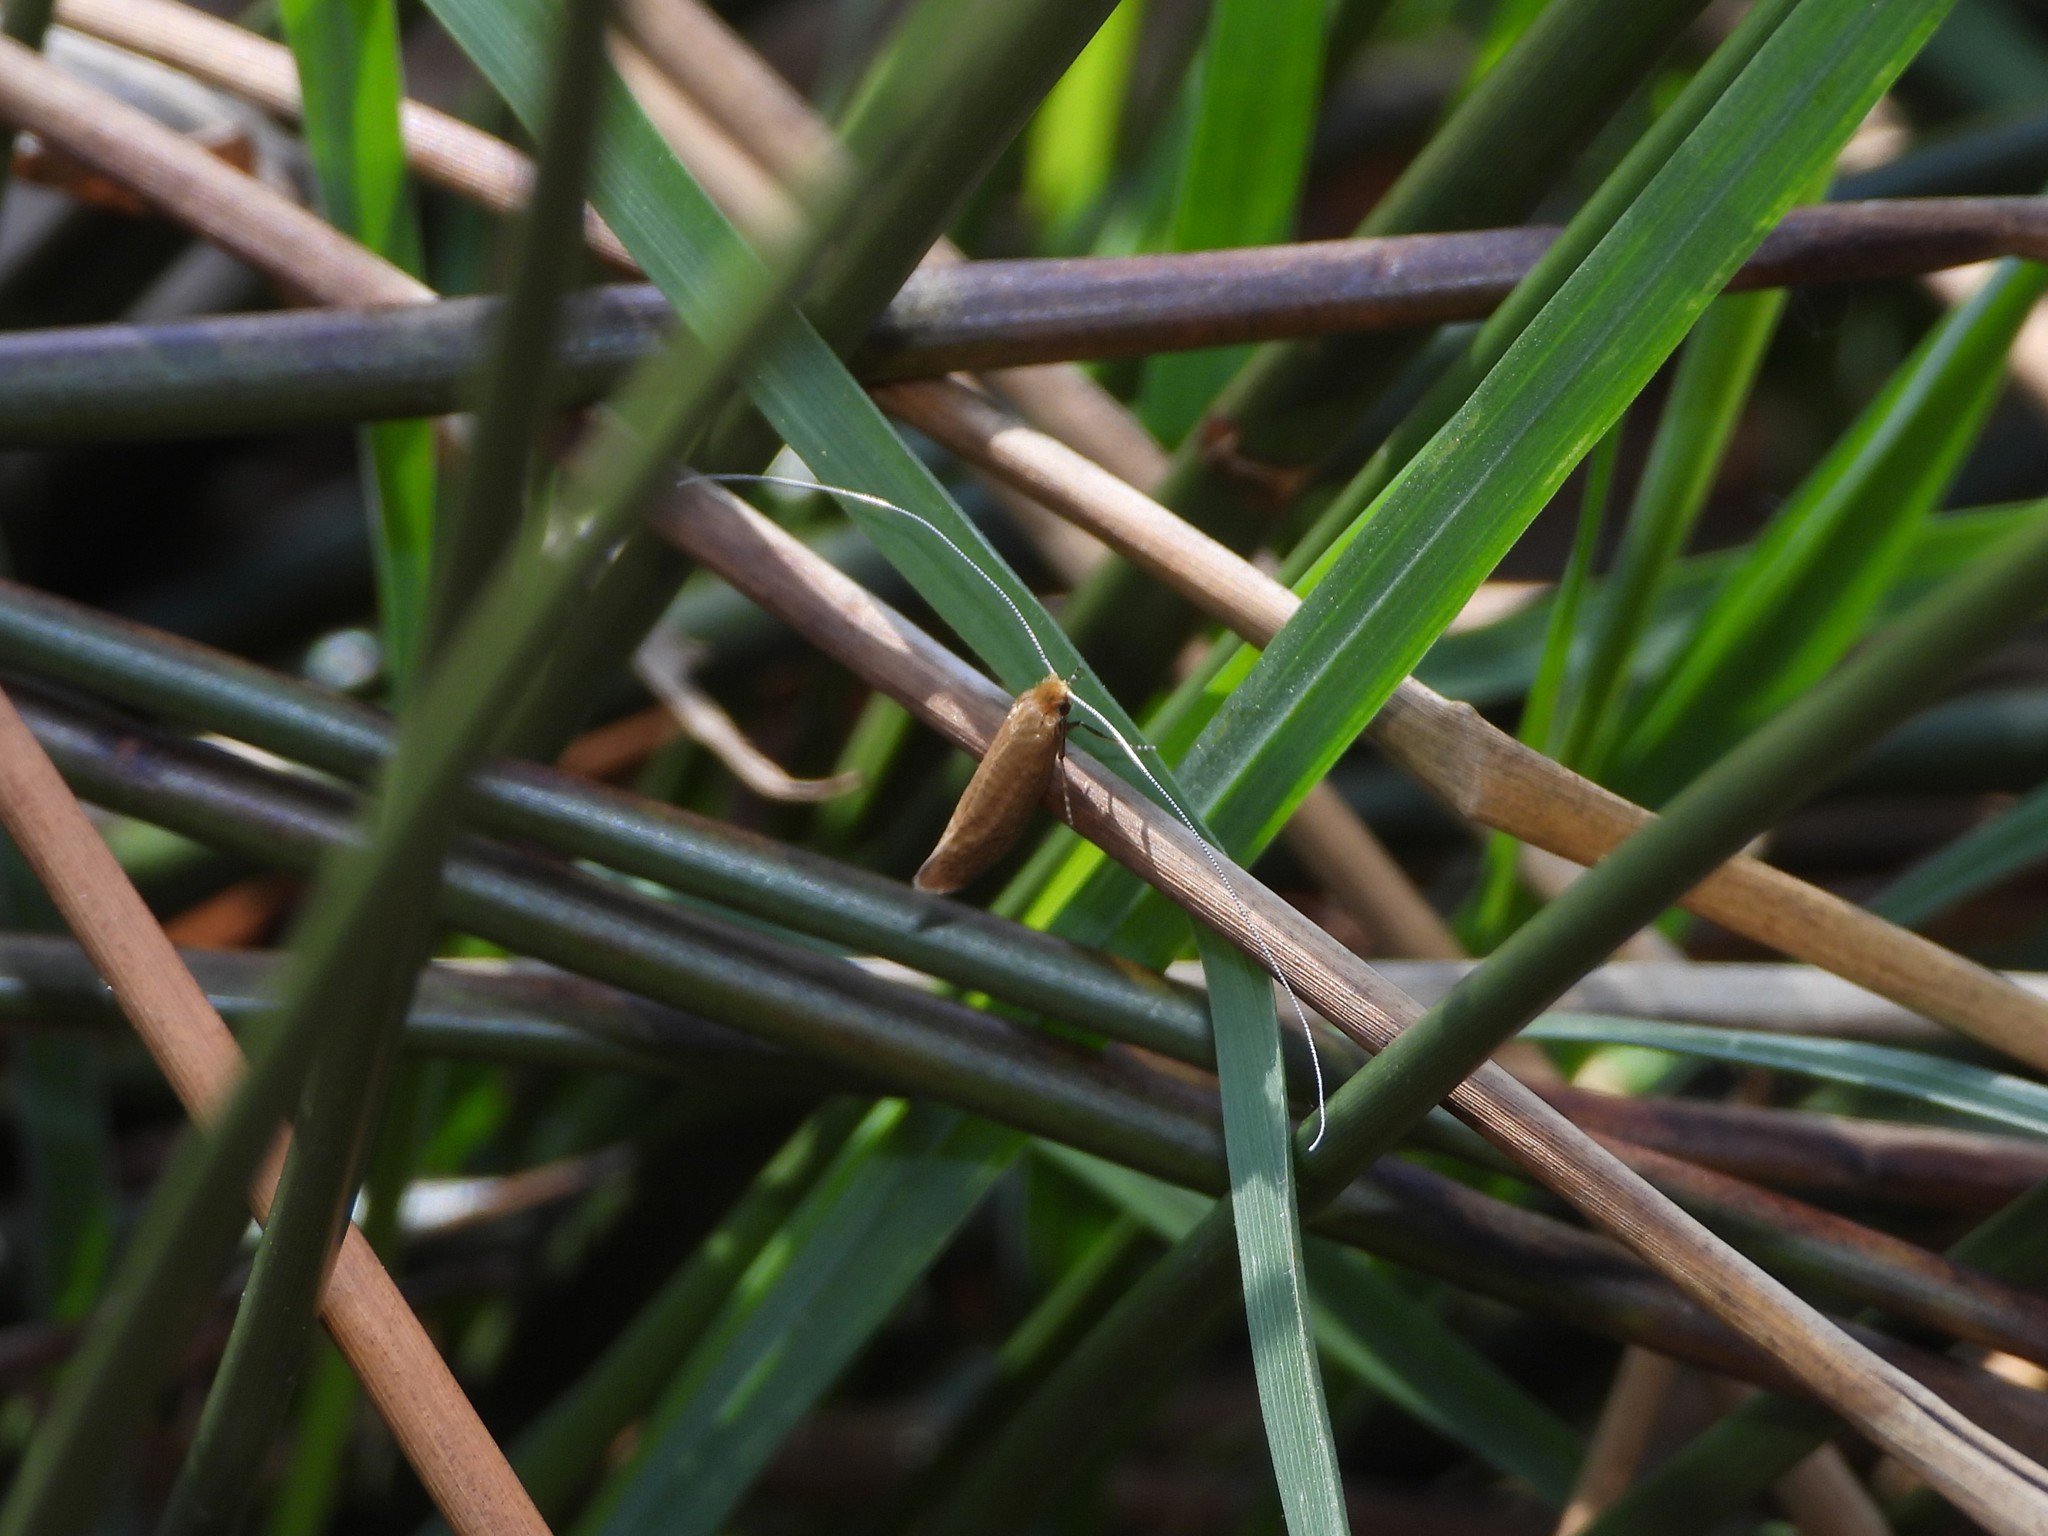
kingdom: Animalia
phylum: Arthropoda
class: Insecta
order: Lepidoptera
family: Adelidae
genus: Nematopogon
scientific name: Nematopogon adansoniella
